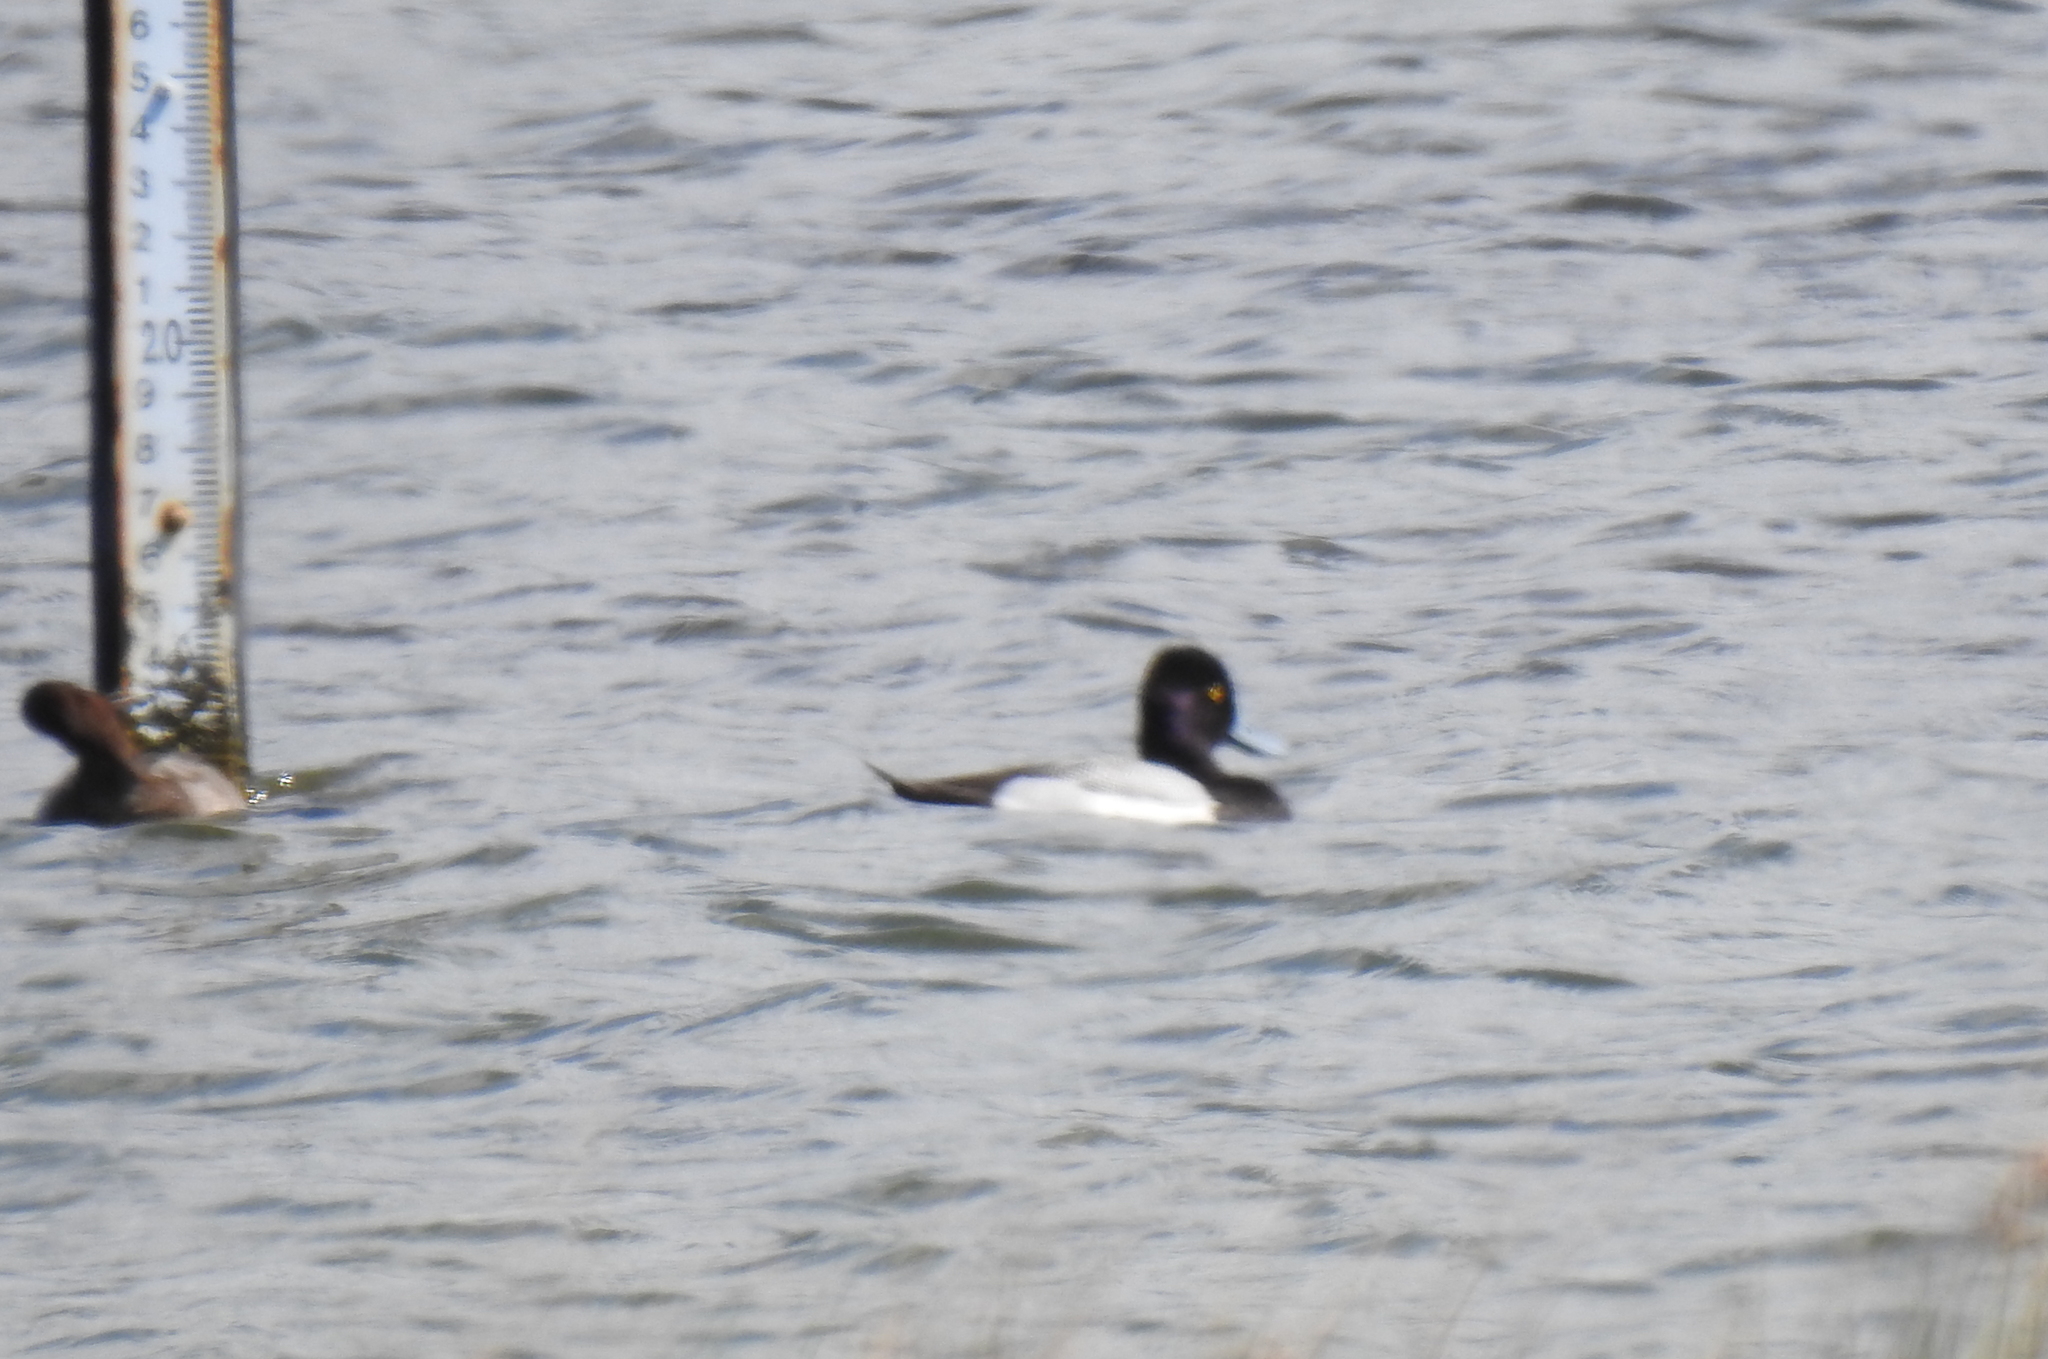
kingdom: Animalia
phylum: Chordata
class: Aves
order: Anseriformes
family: Anatidae
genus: Aythya
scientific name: Aythya affinis
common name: Lesser scaup
